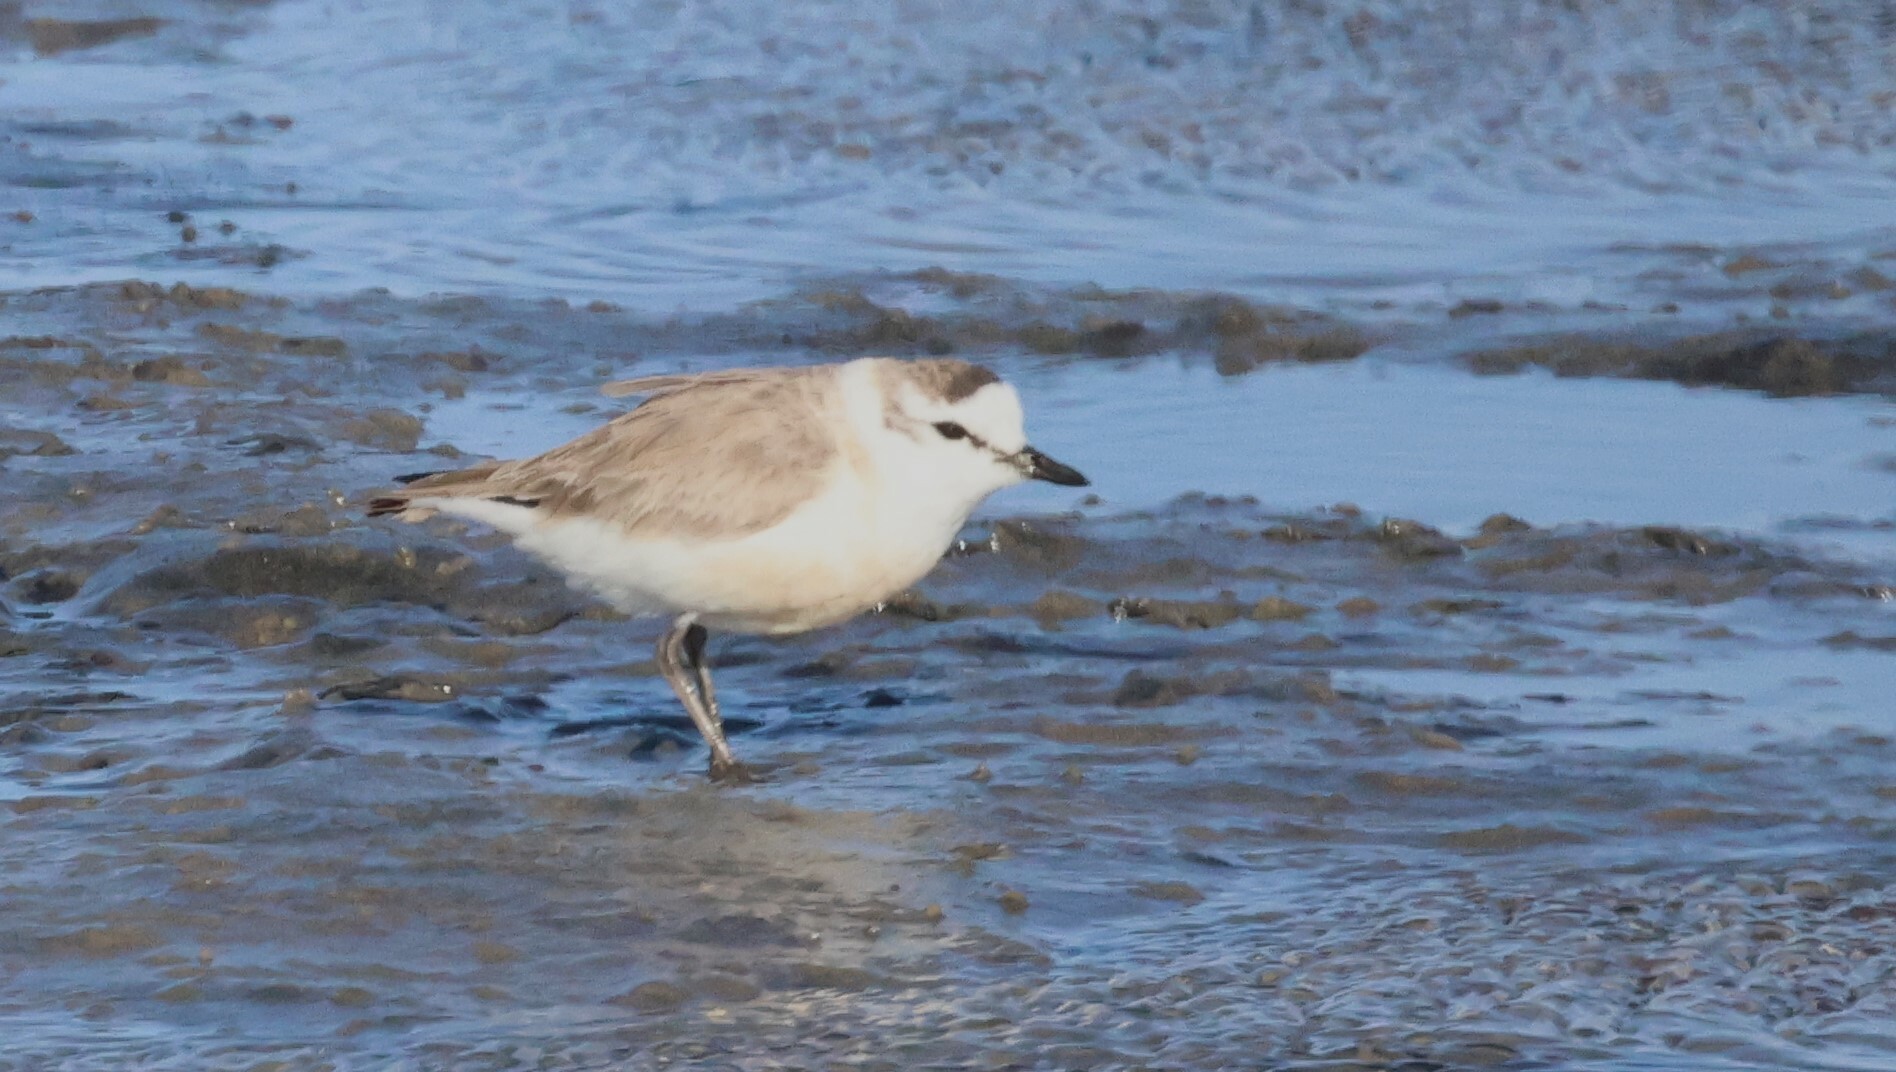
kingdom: Animalia
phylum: Chordata
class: Aves
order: Charadriiformes
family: Charadriidae
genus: Anarhynchus
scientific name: Anarhynchus
